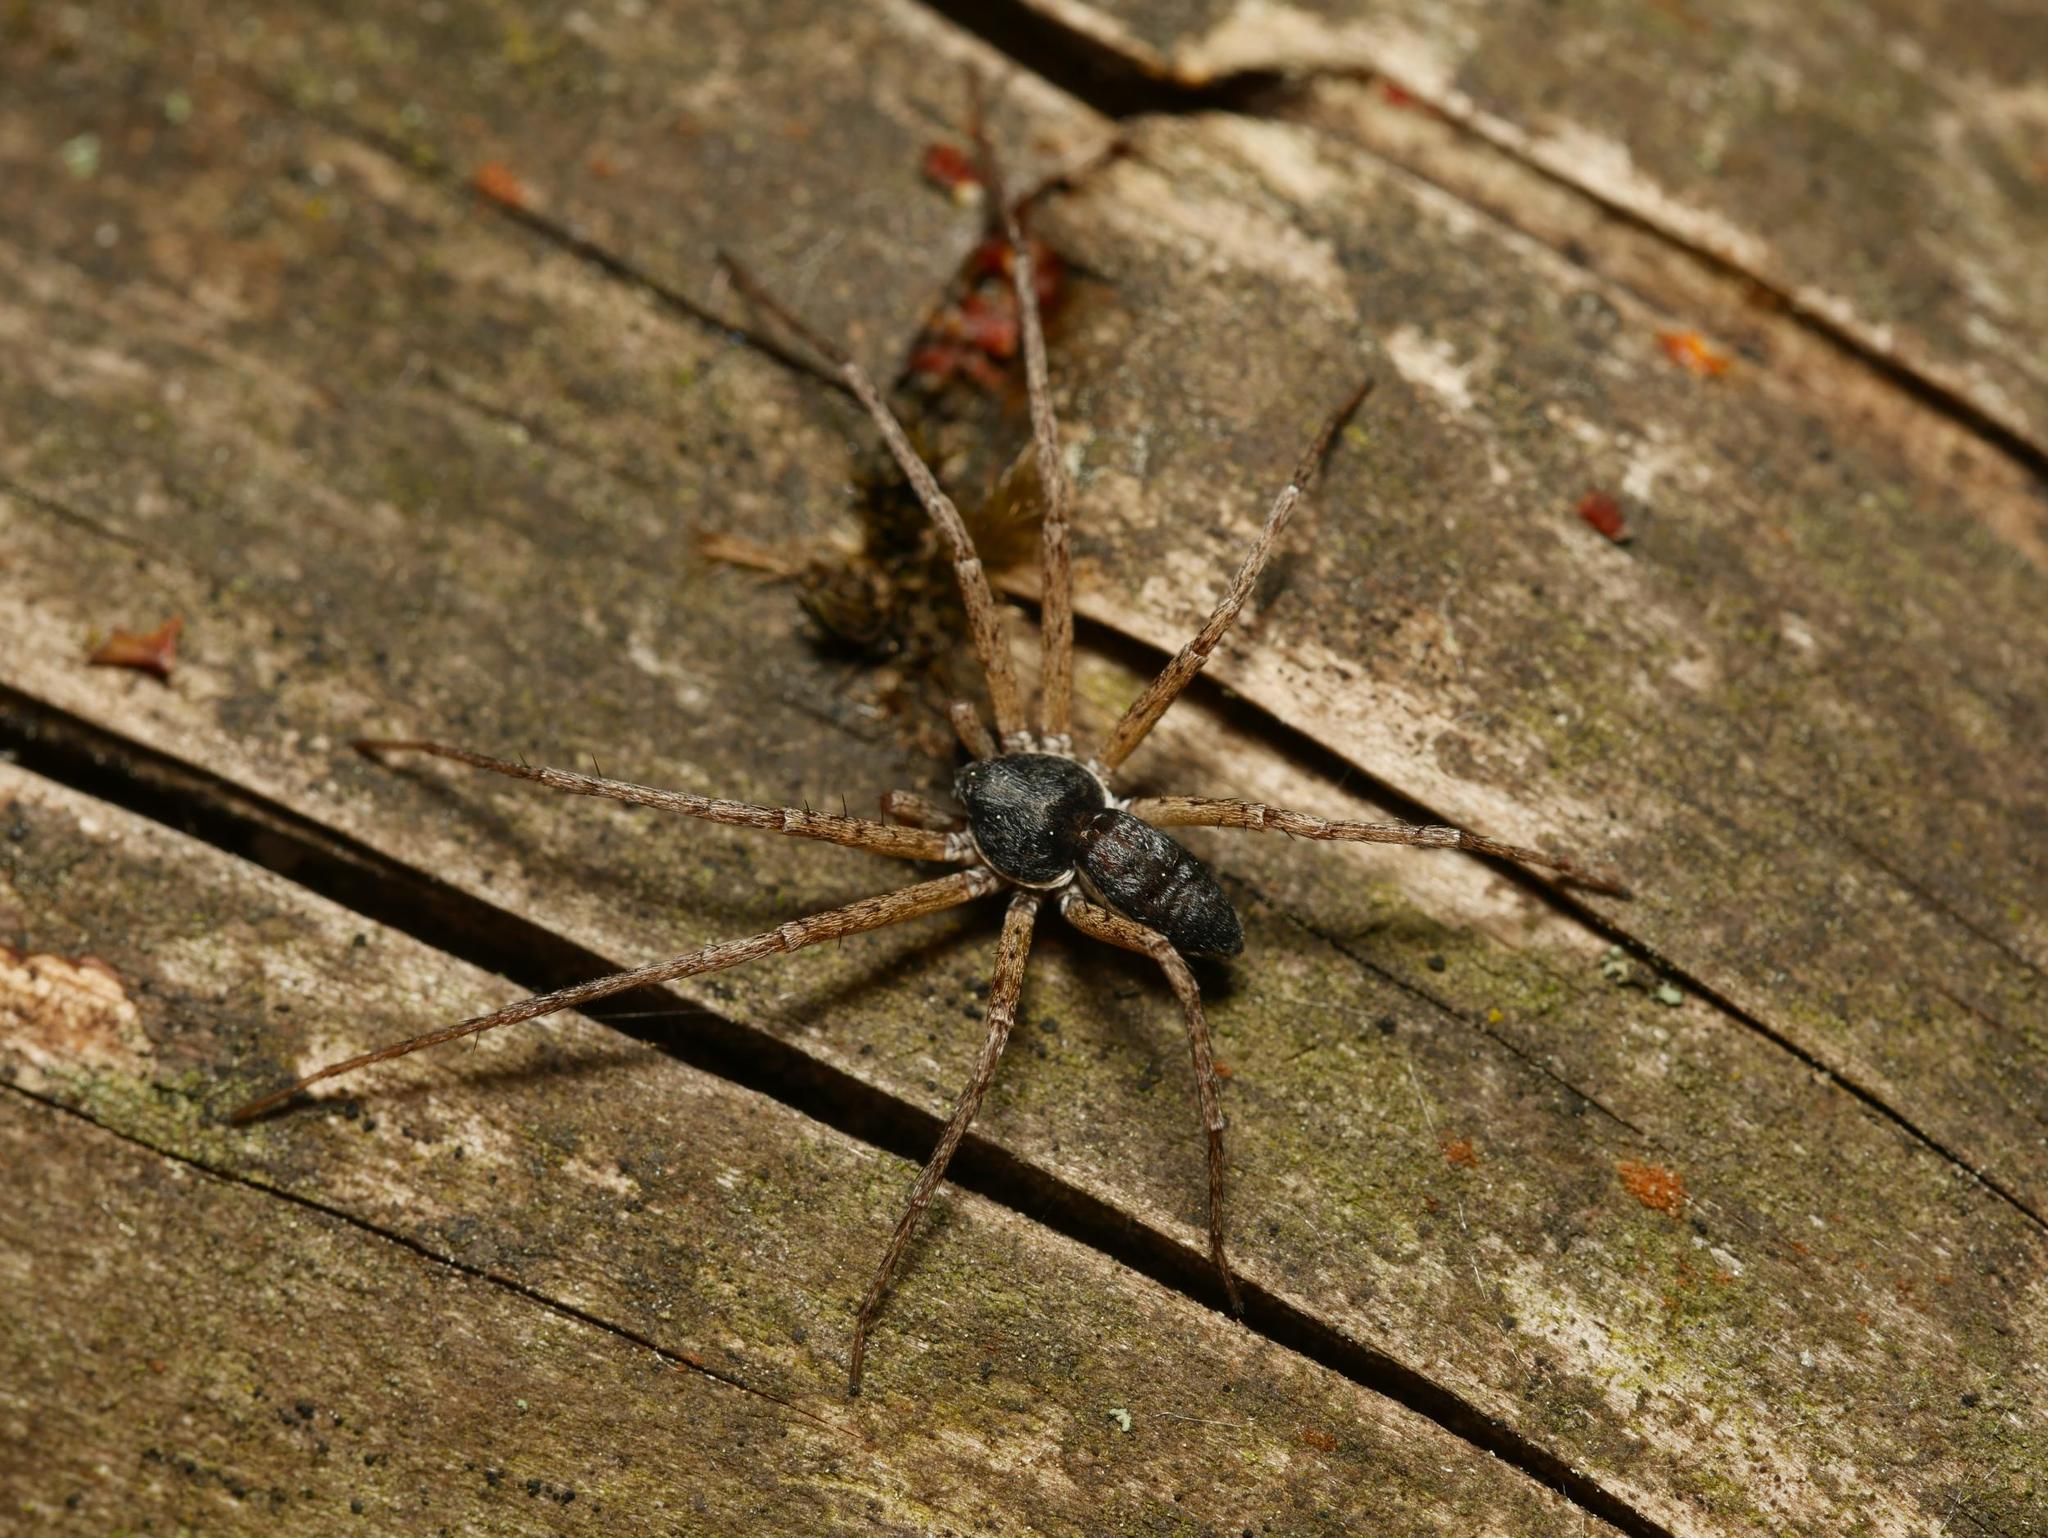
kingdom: Animalia
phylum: Arthropoda
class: Arachnida
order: Araneae
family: Philodromidae
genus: Philodromus
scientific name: Philodromus dispar
